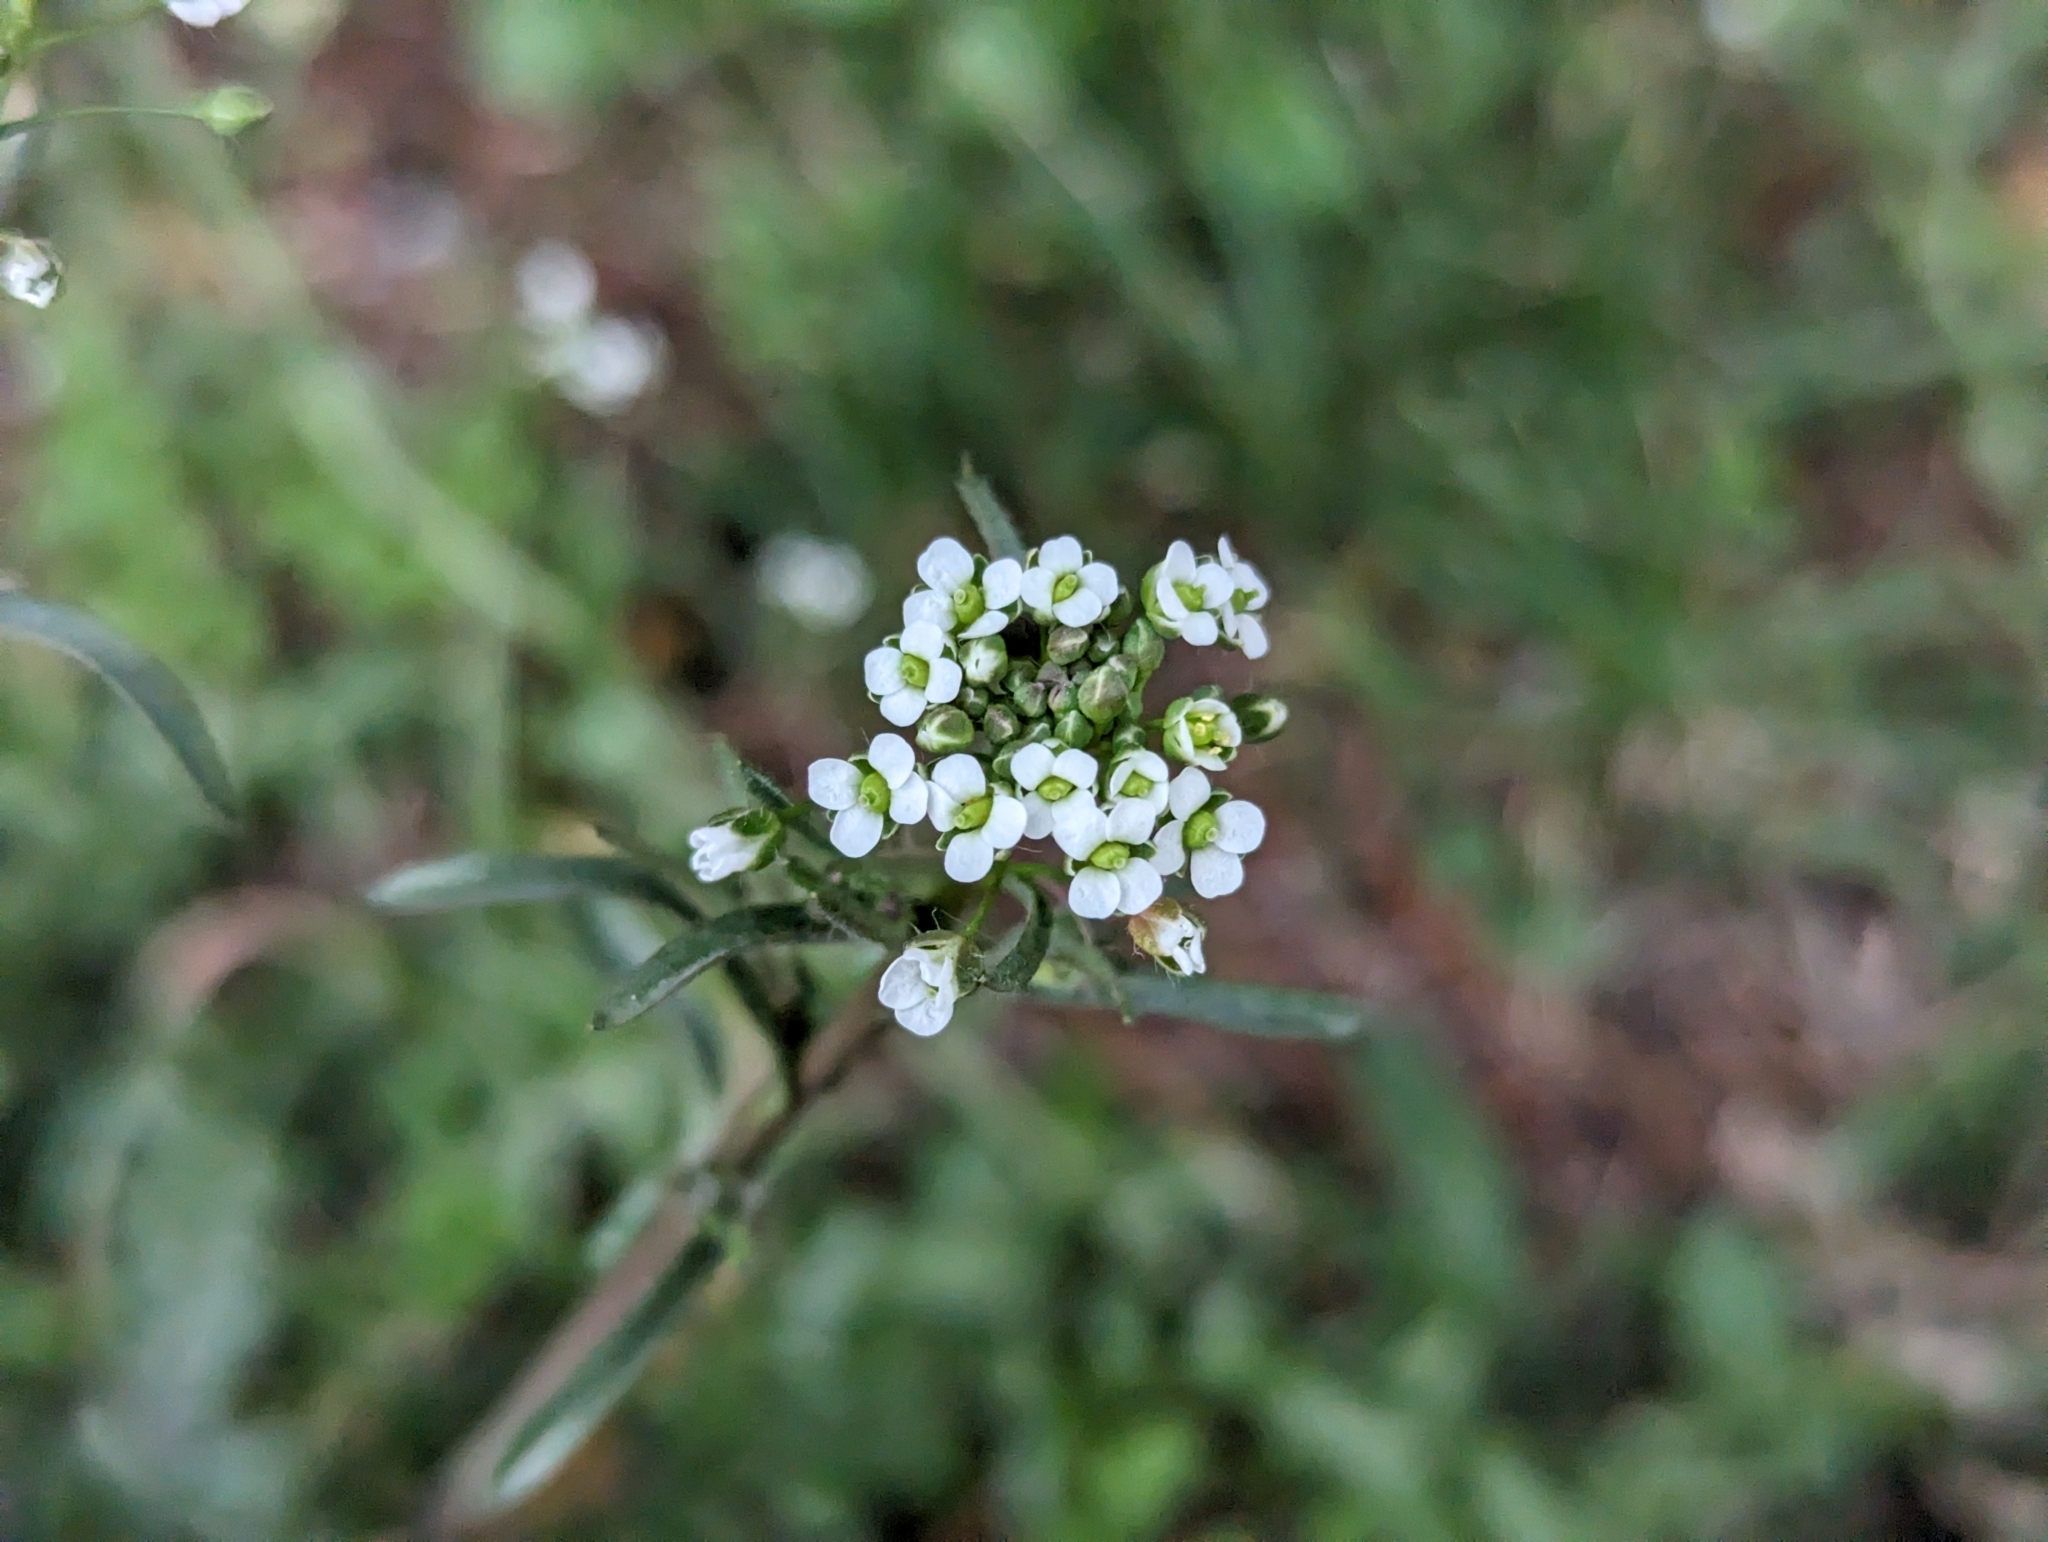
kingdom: Plantae
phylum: Tracheophyta
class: Magnoliopsida
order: Brassicales
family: Brassicaceae
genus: Capsella
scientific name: Capsella bursa-pastoris
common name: Shepherd's purse
